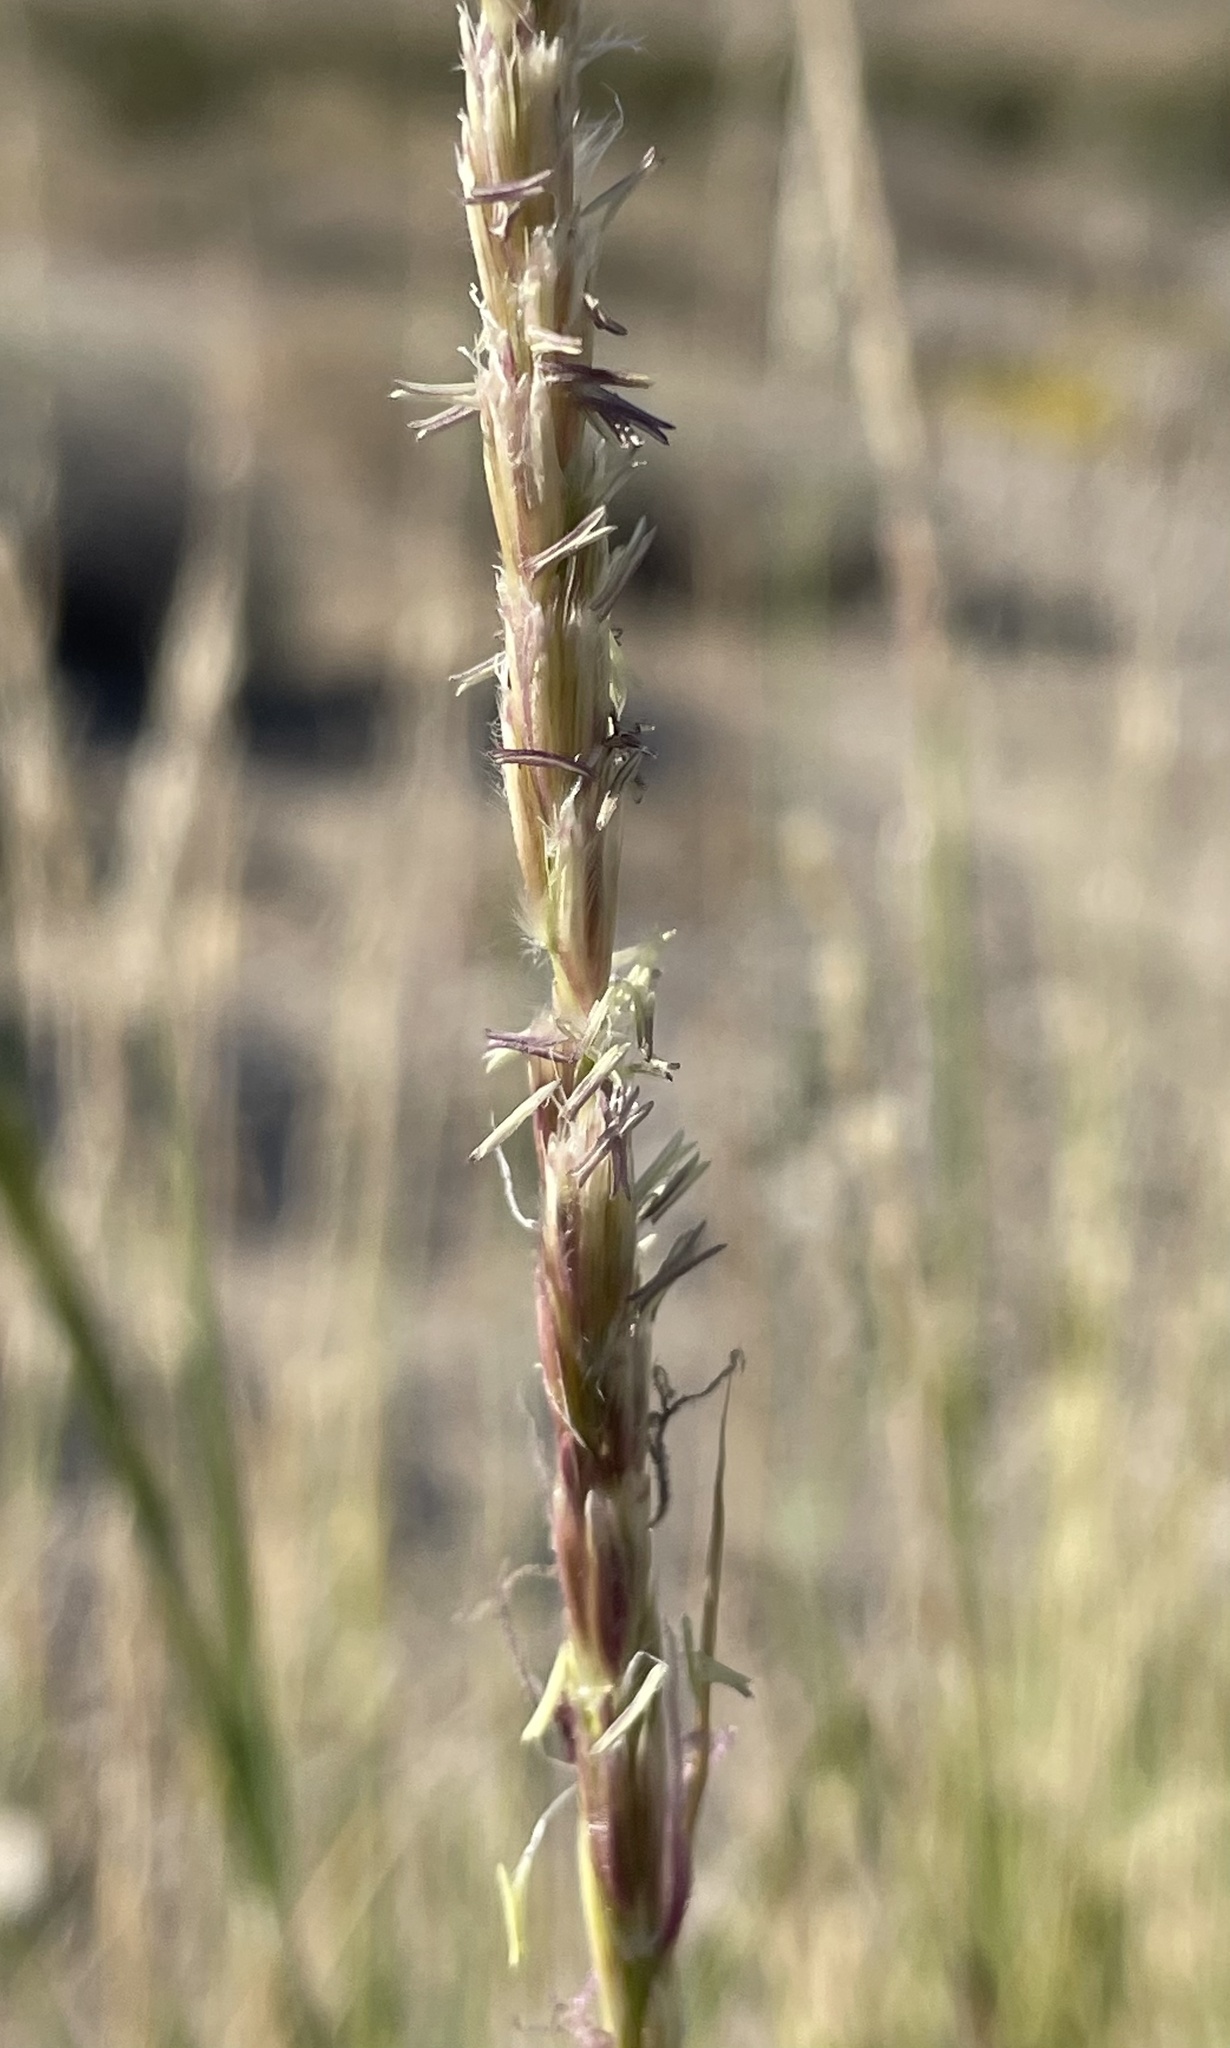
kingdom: Plantae
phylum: Tracheophyta
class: Liliopsida
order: Poales
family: Poaceae
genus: Hilaria
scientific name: Hilaria rigida
